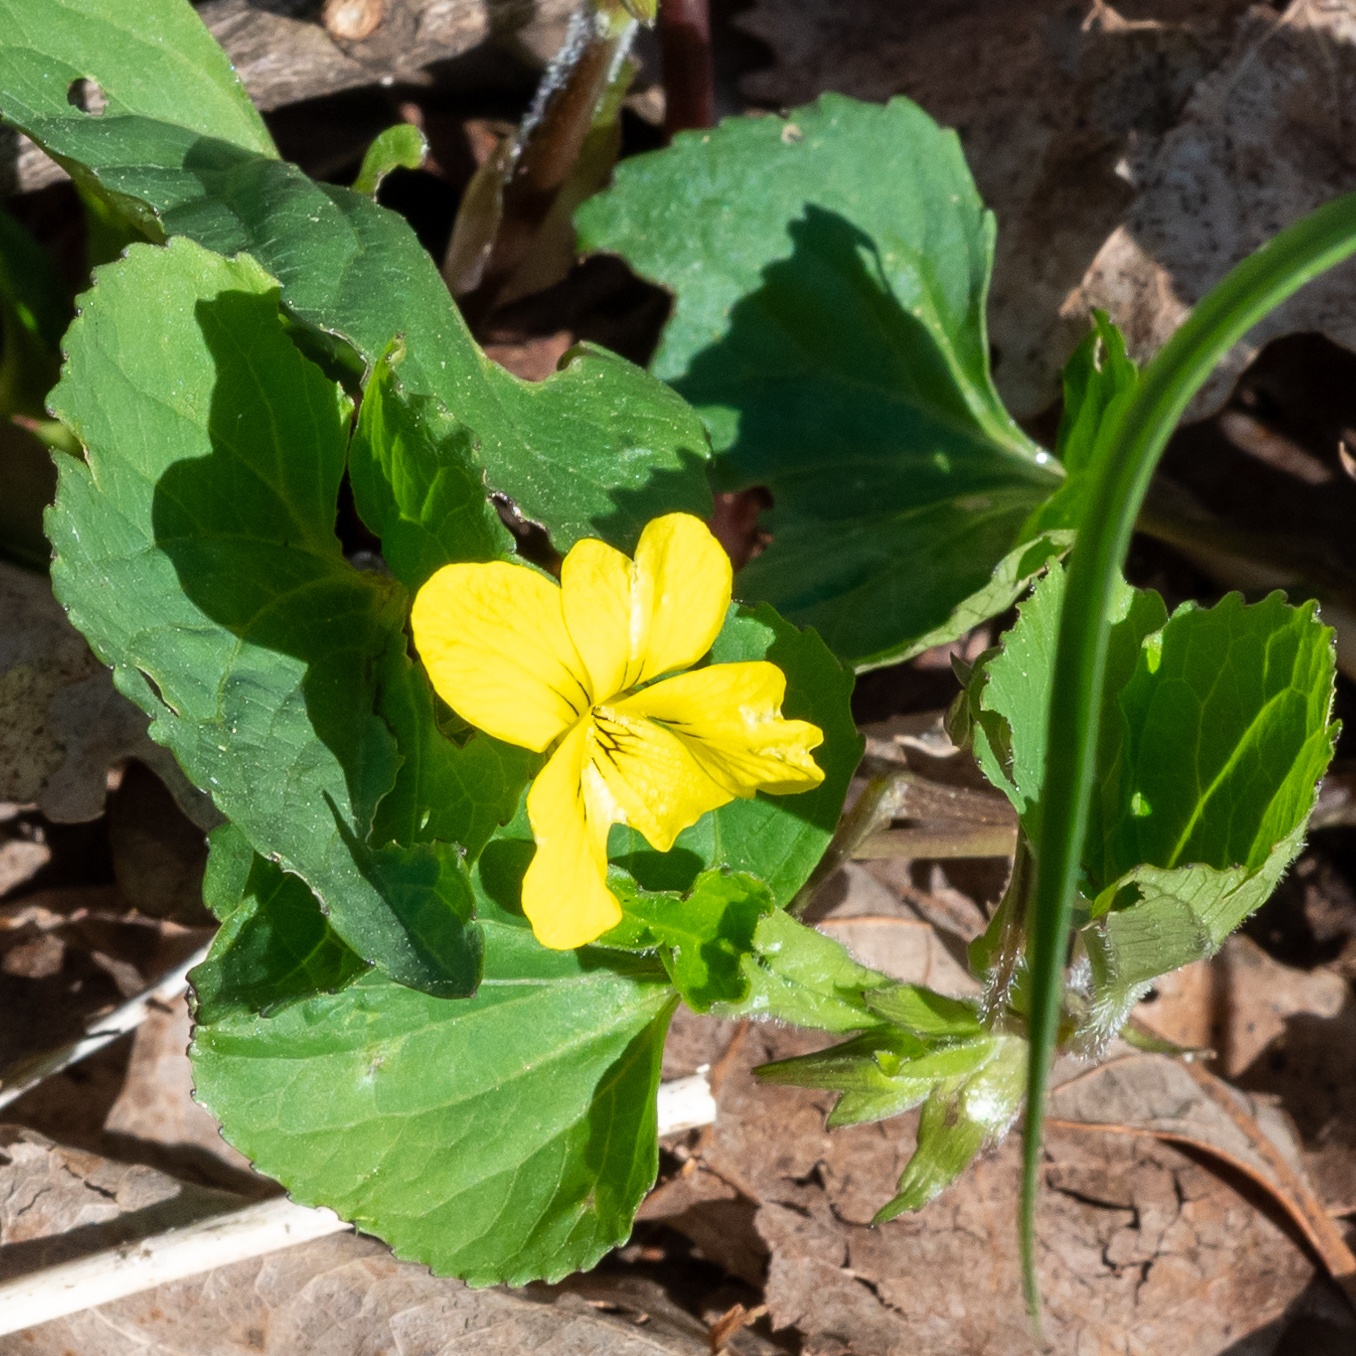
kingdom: Plantae
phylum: Tracheophyta
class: Magnoliopsida
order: Malpighiales
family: Violaceae
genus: Viola
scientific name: Viola eriocarpa
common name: Smooth yellow violet
